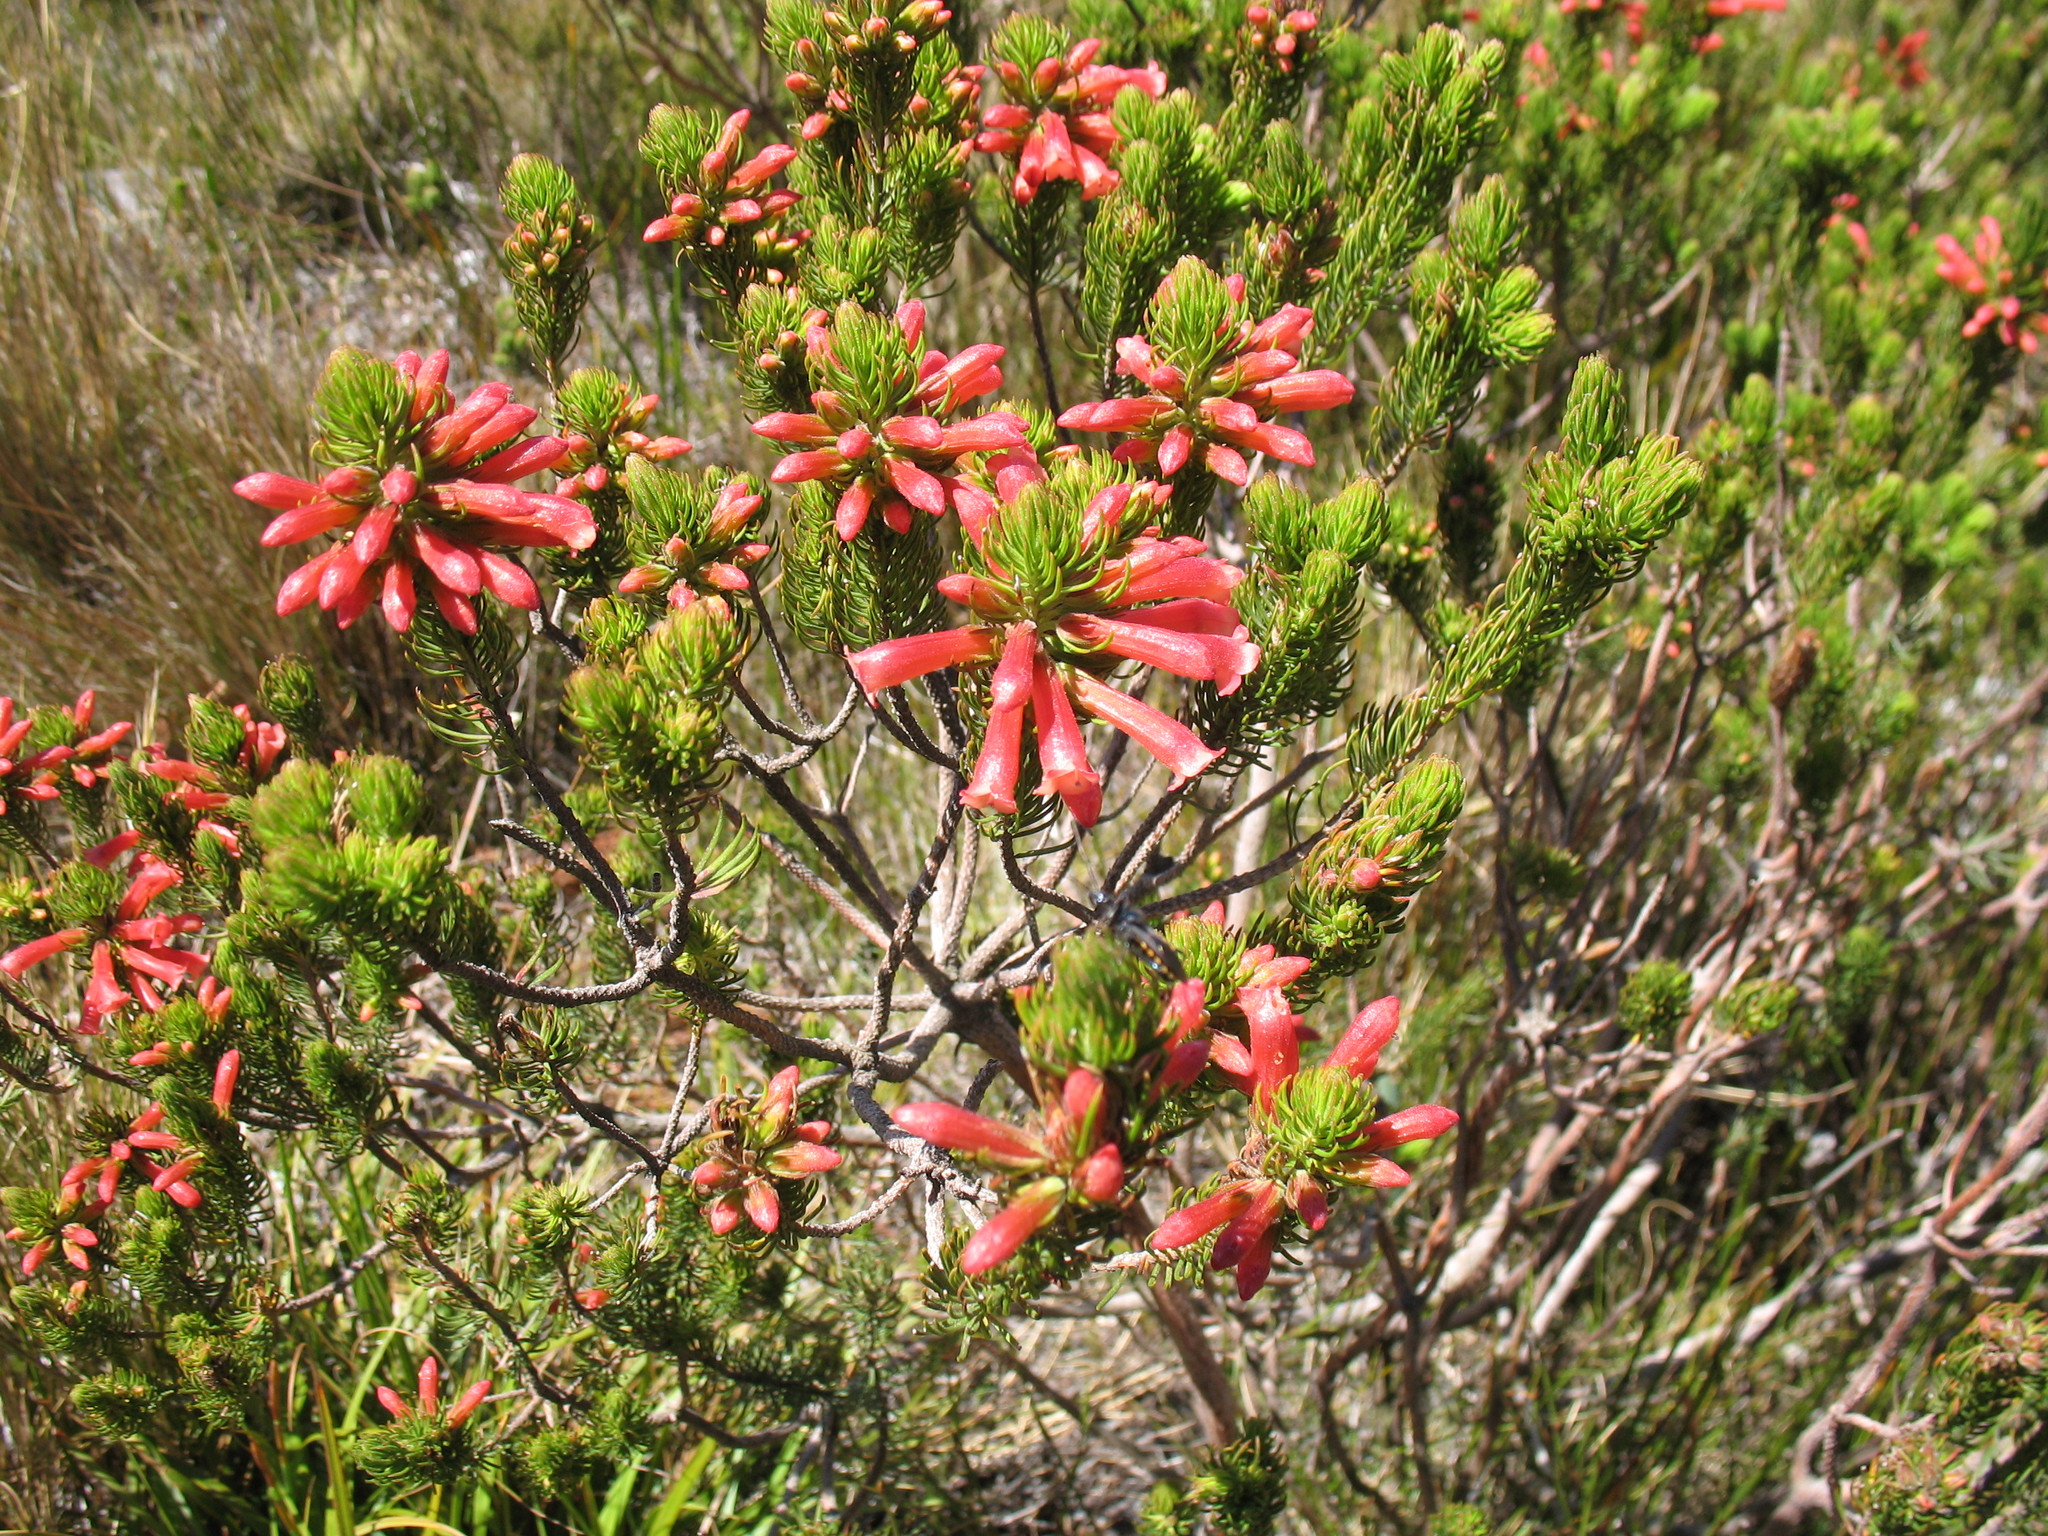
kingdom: Plantae
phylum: Tracheophyta
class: Magnoliopsida
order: Ericales
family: Ericaceae
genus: Erica
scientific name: Erica viscaria
